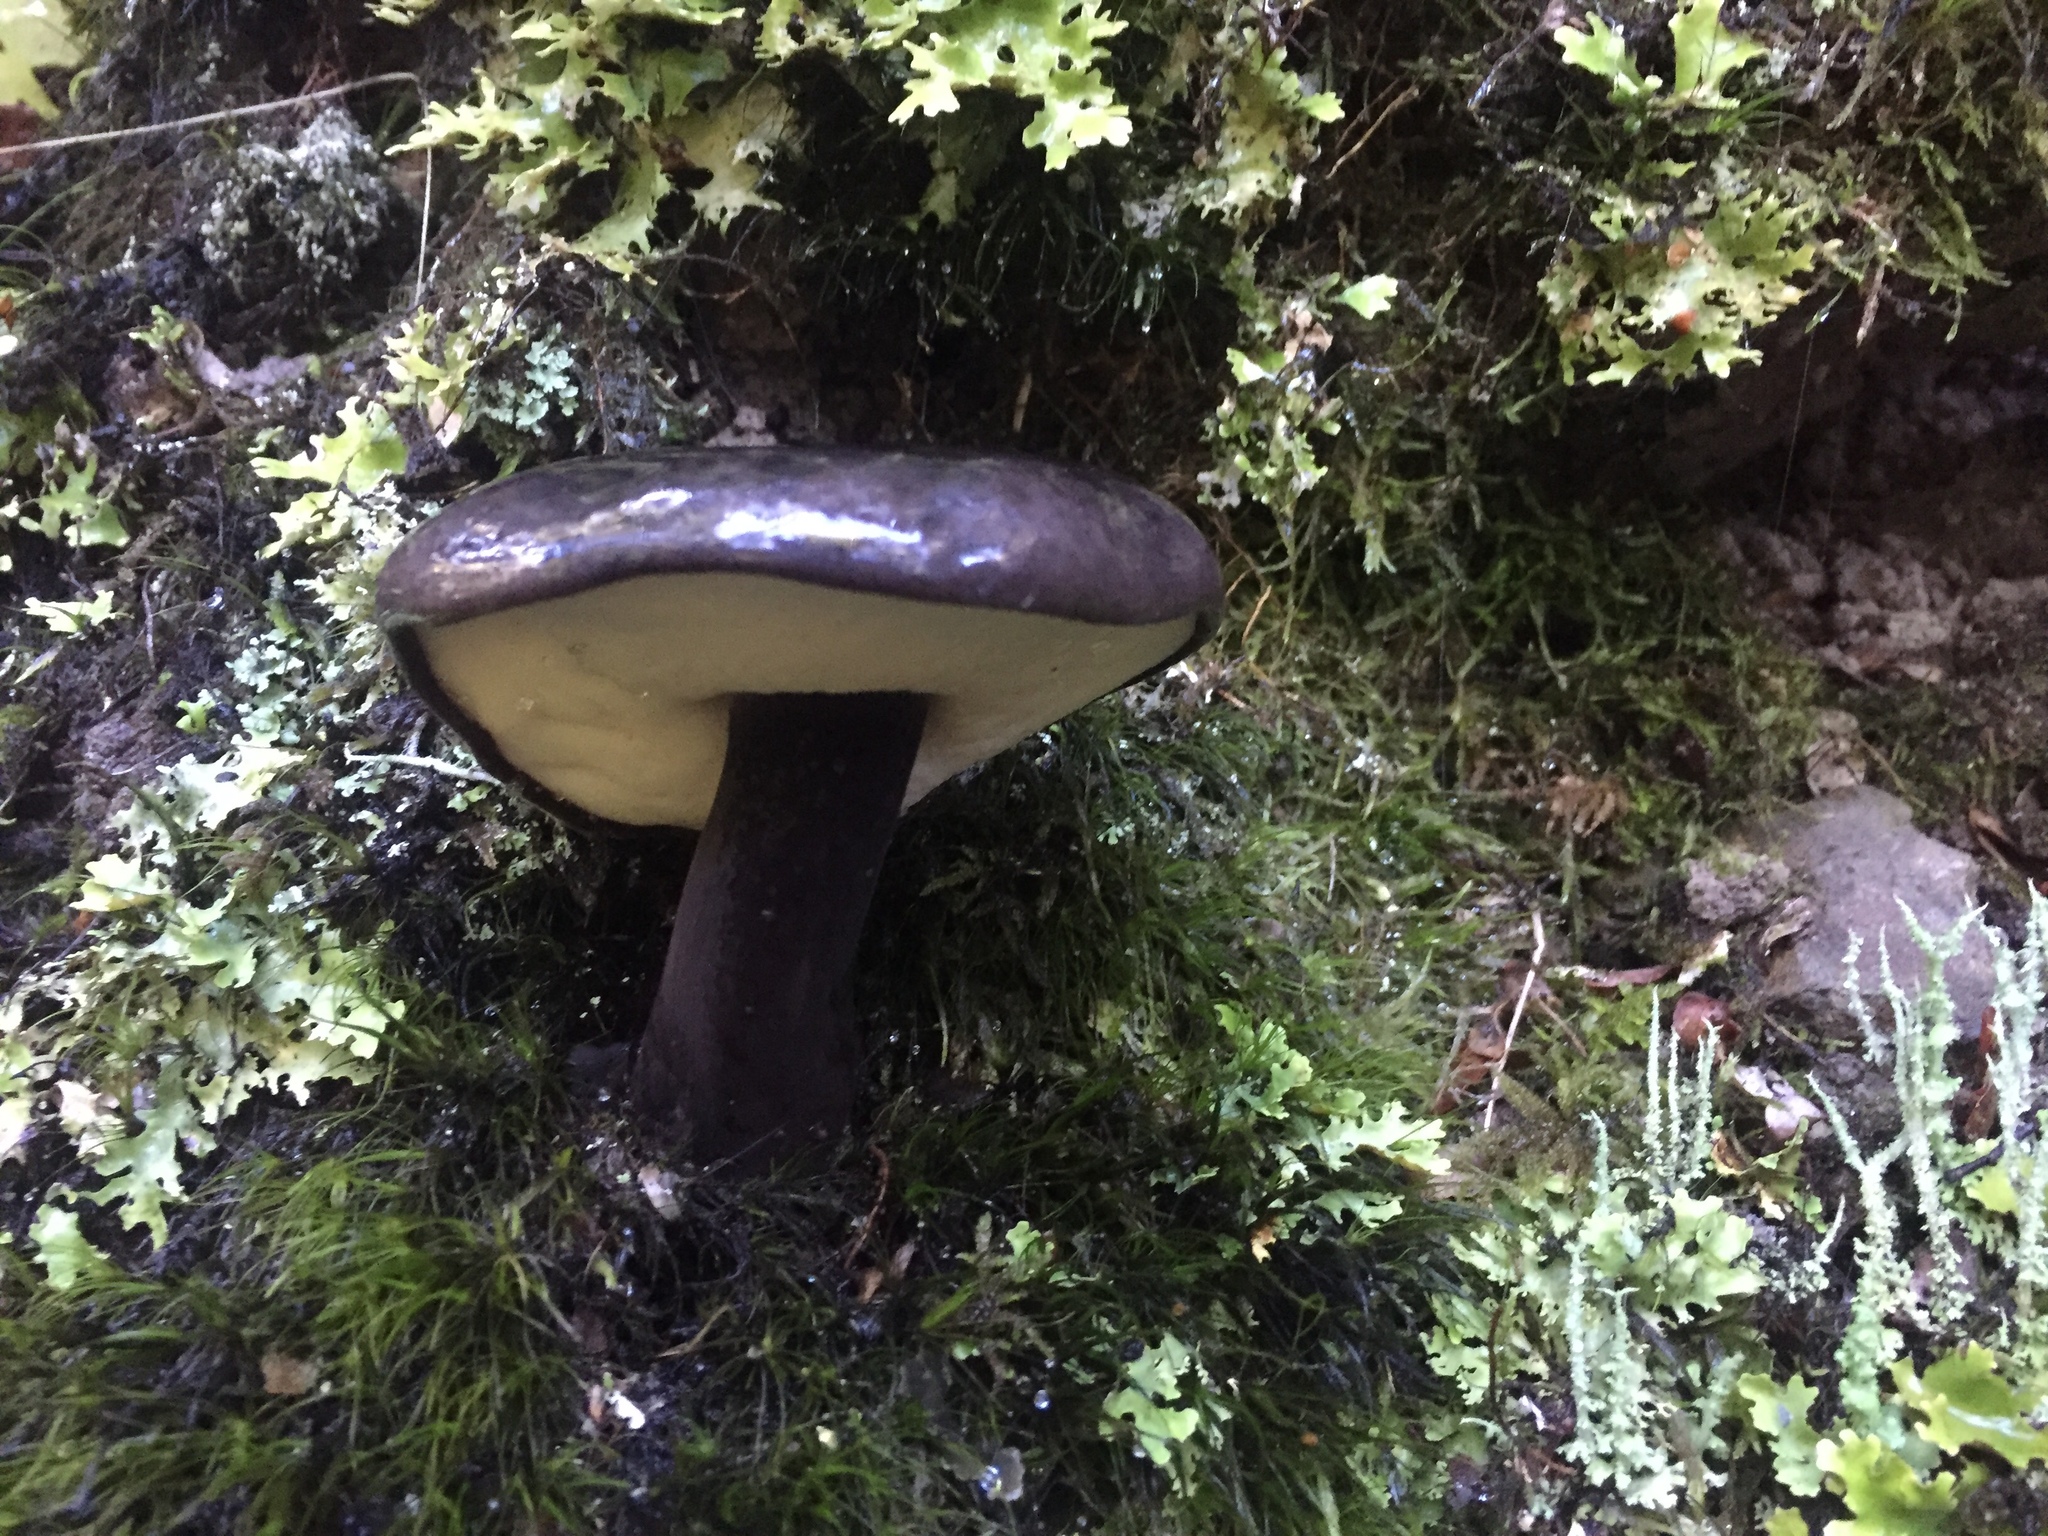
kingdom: Fungi
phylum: Basidiomycota
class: Agaricomycetes
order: Boletales
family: Boletaceae
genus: Porphyrellus
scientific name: Porphyrellus formosus
